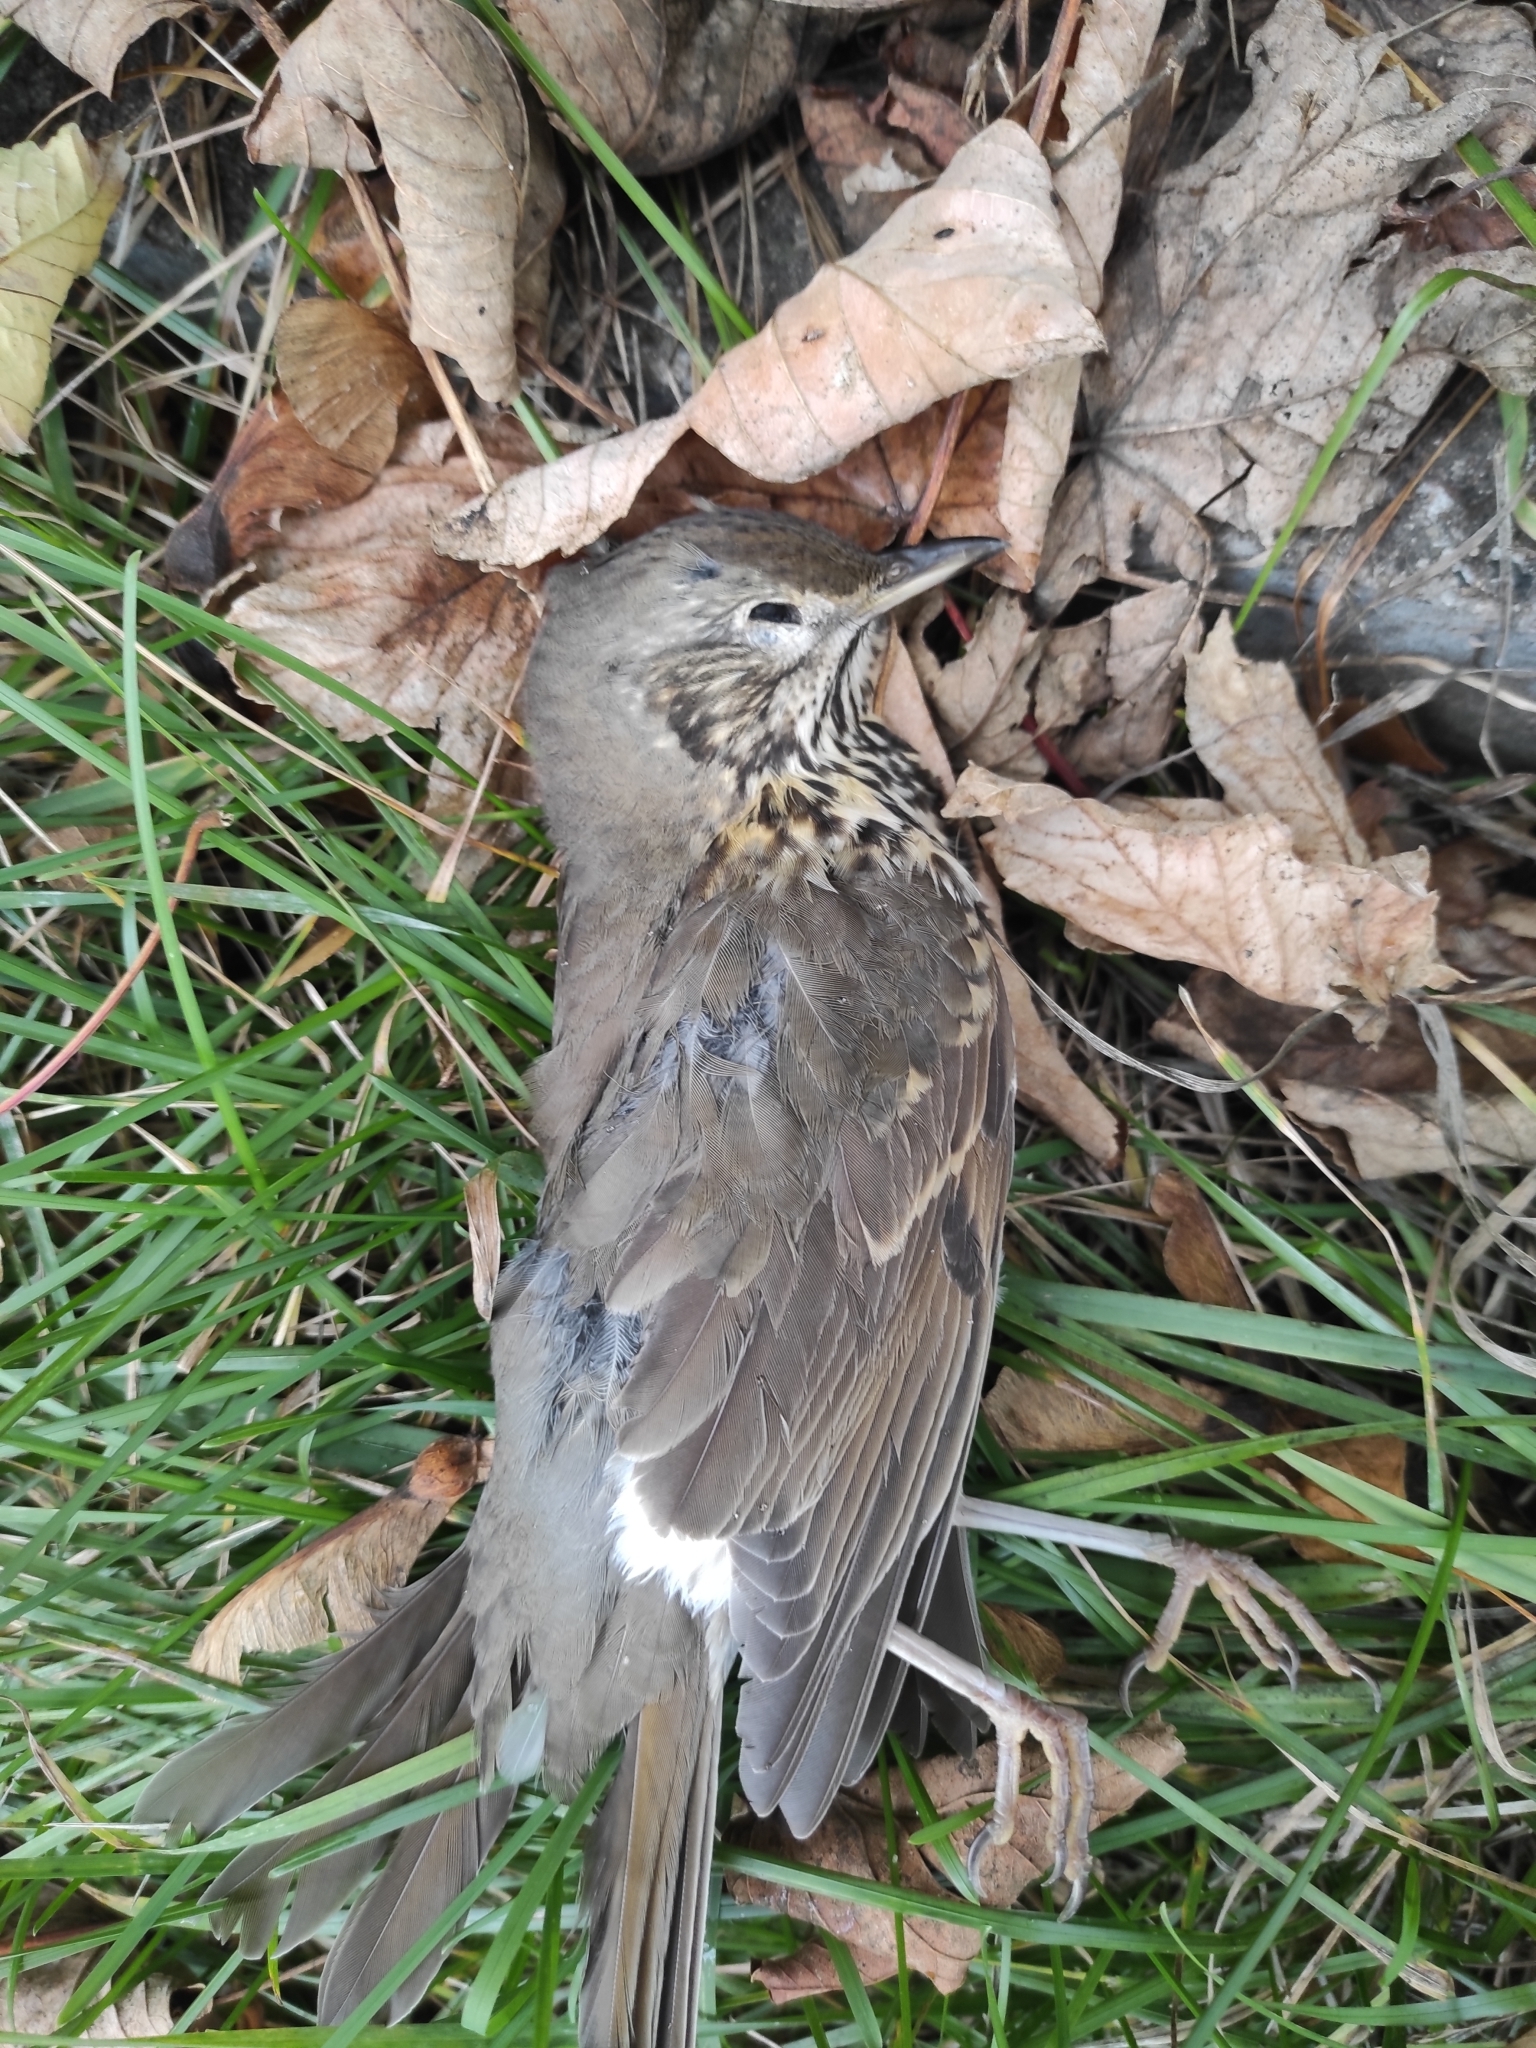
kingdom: Animalia
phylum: Chordata
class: Aves
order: Passeriformes
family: Turdidae
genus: Turdus
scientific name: Turdus philomelos
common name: Song thrush
